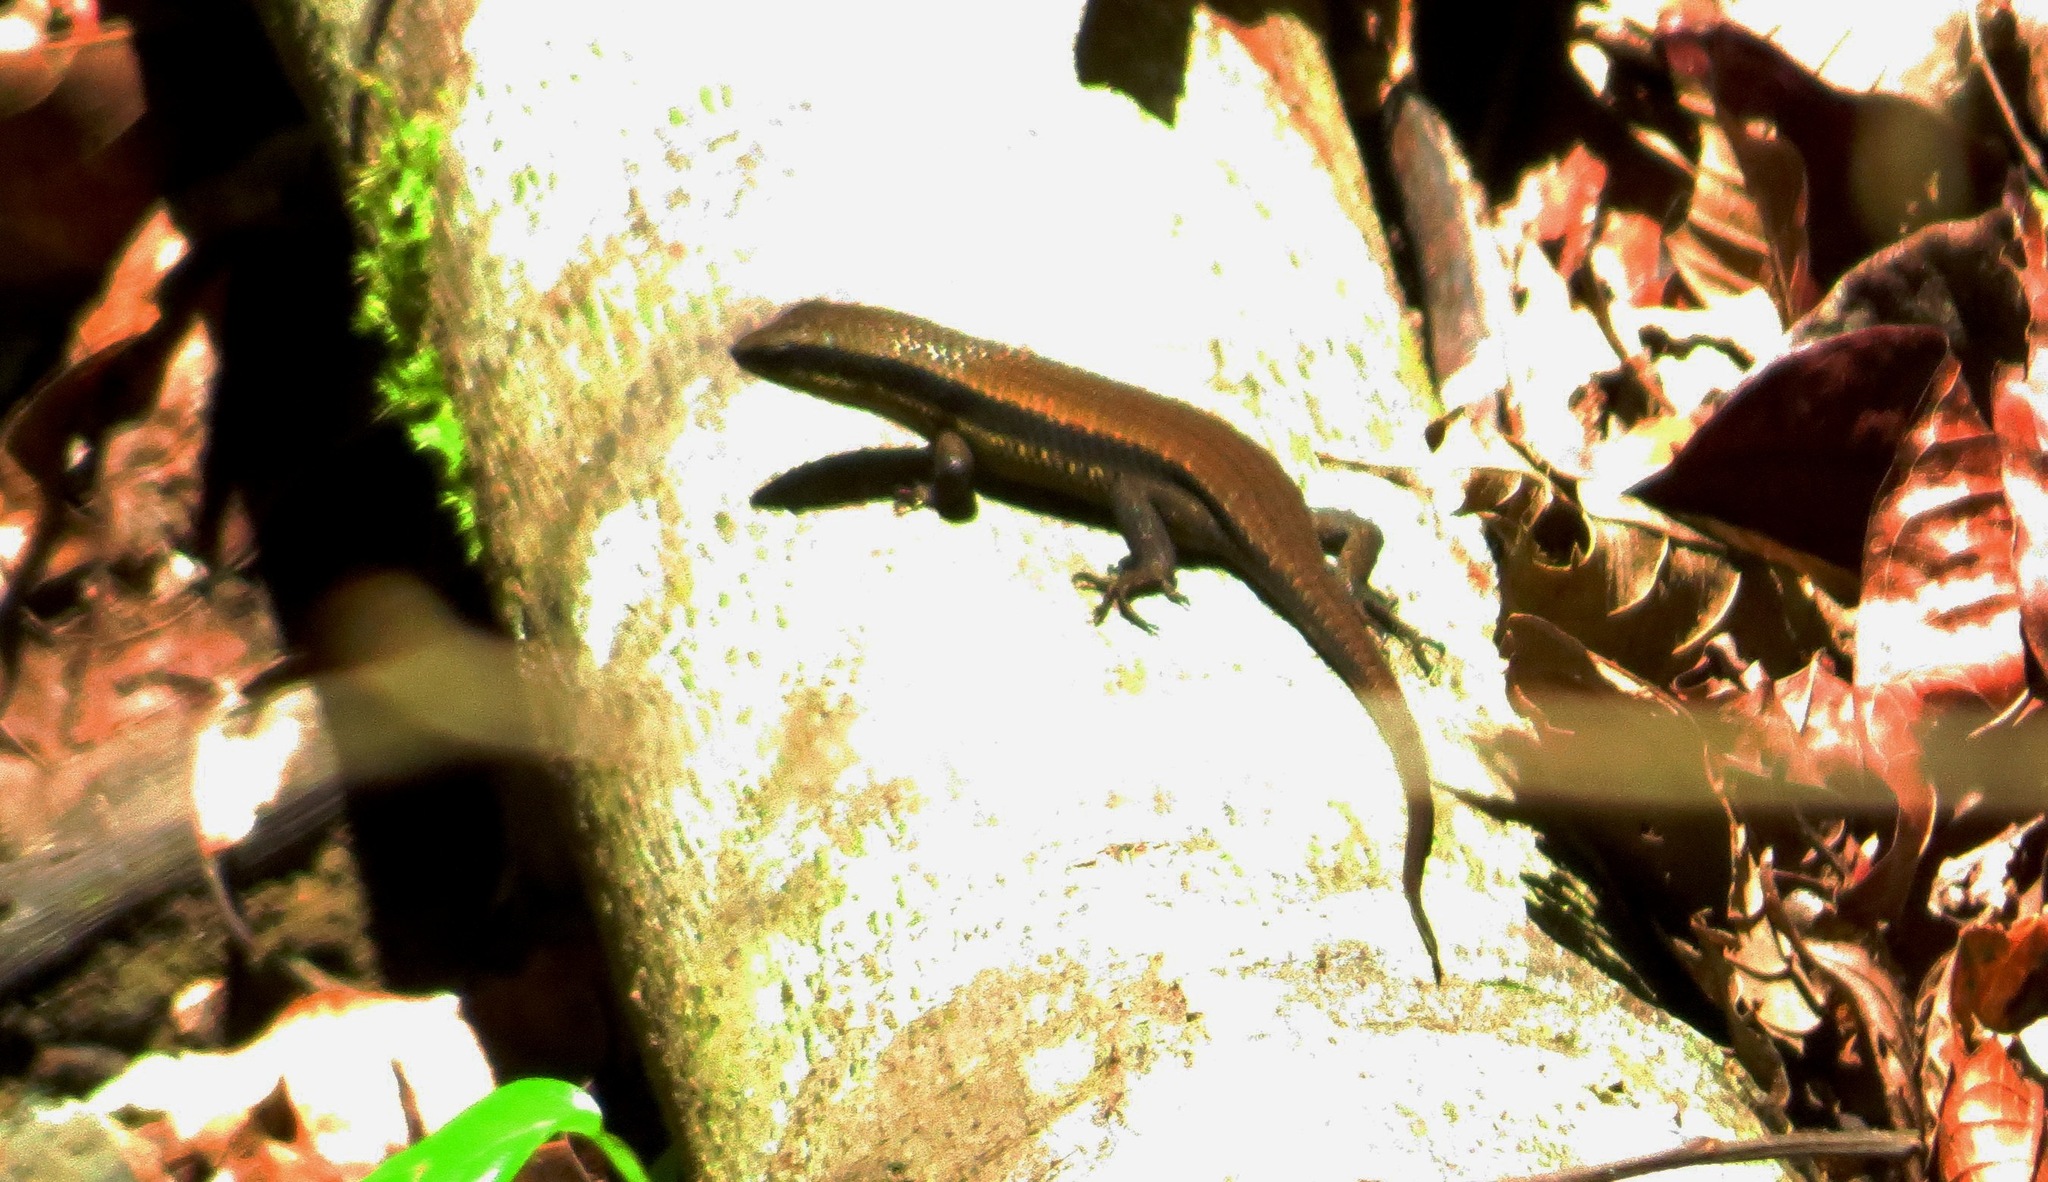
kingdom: Animalia
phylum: Chordata
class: Squamata
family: Scincidae
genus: Eutropis
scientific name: Eutropis rudis
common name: Rough mabuya
